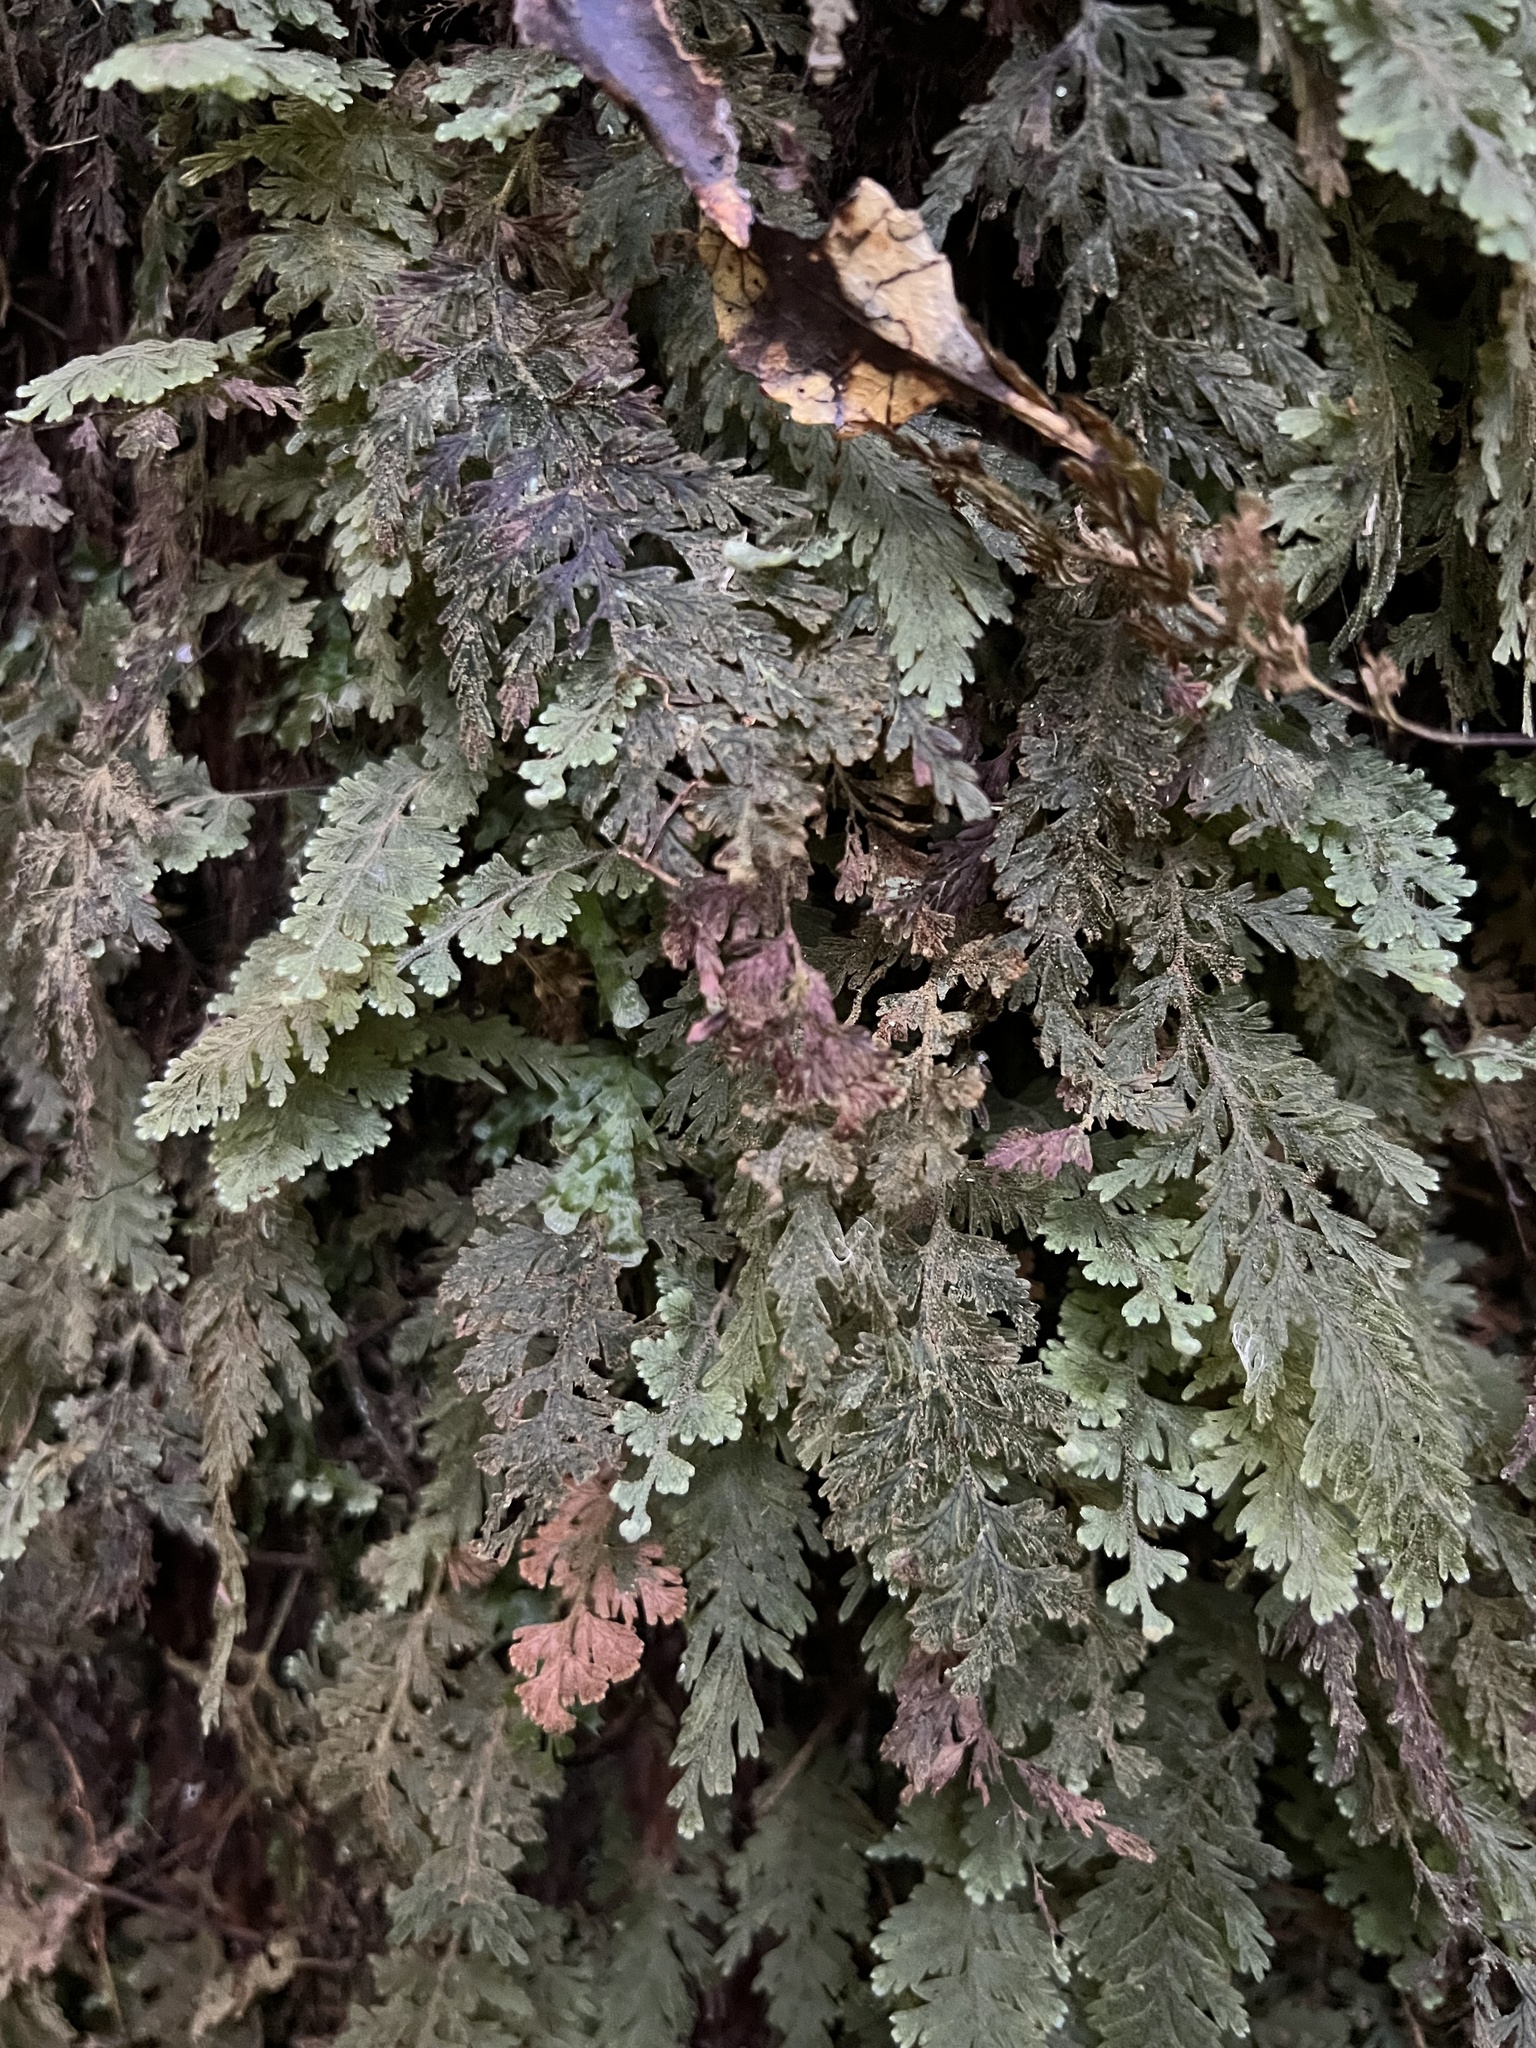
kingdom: Plantae
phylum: Tracheophyta
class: Polypodiopsida
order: Hymenophyllales
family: Hymenophyllaceae
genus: Hymenophyllum
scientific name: Hymenophyllum frankliniae
